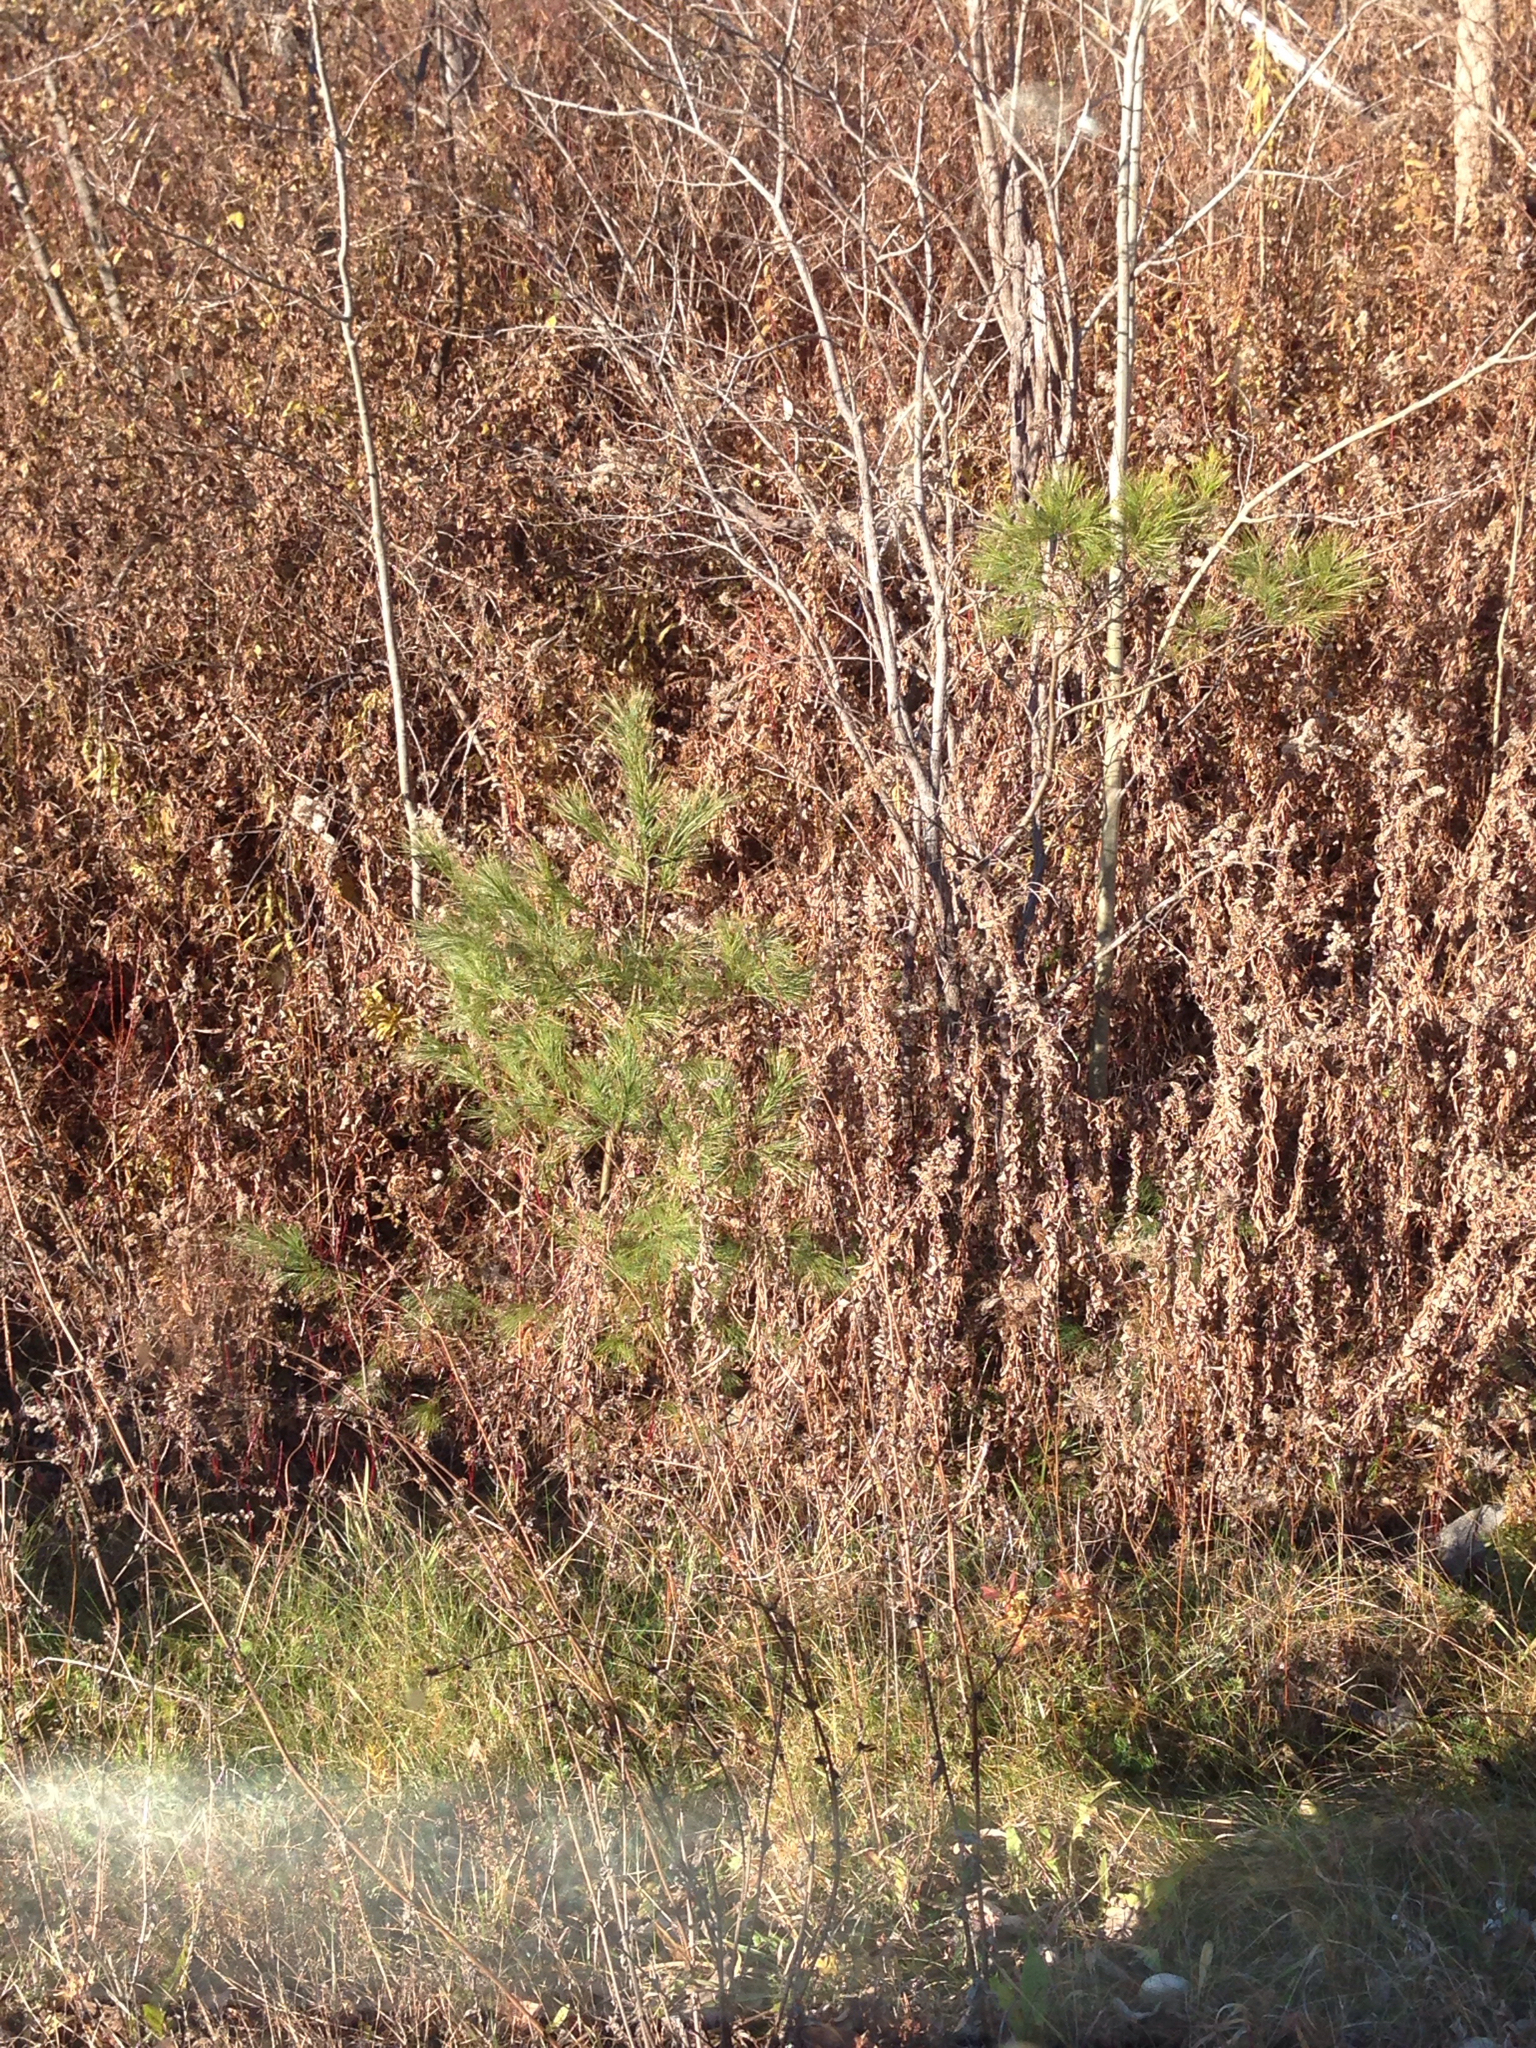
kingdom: Plantae
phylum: Tracheophyta
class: Pinopsida
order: Pinales
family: Pinaceae
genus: Pinus
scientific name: Pinus strobus
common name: Weymouth pine
